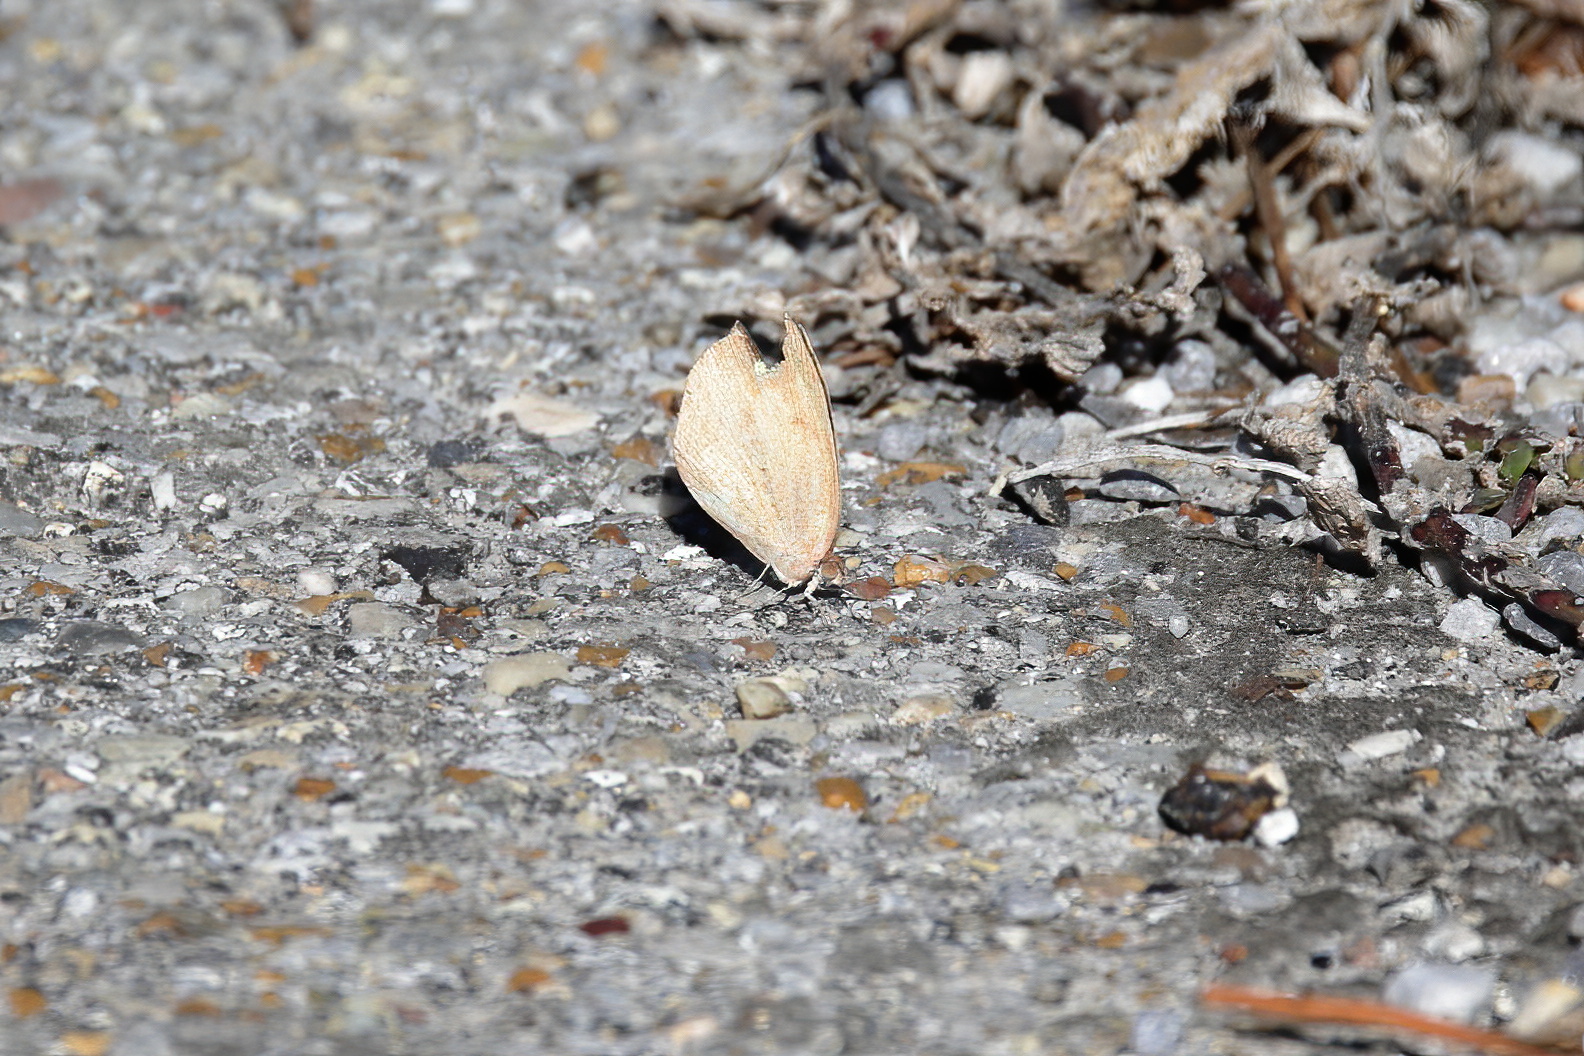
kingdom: Animalia
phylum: Arthropoda
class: Insecta
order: Lepidoptera
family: Pieridae
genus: Eurema
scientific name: Eurema daira
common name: Barred sulphur
